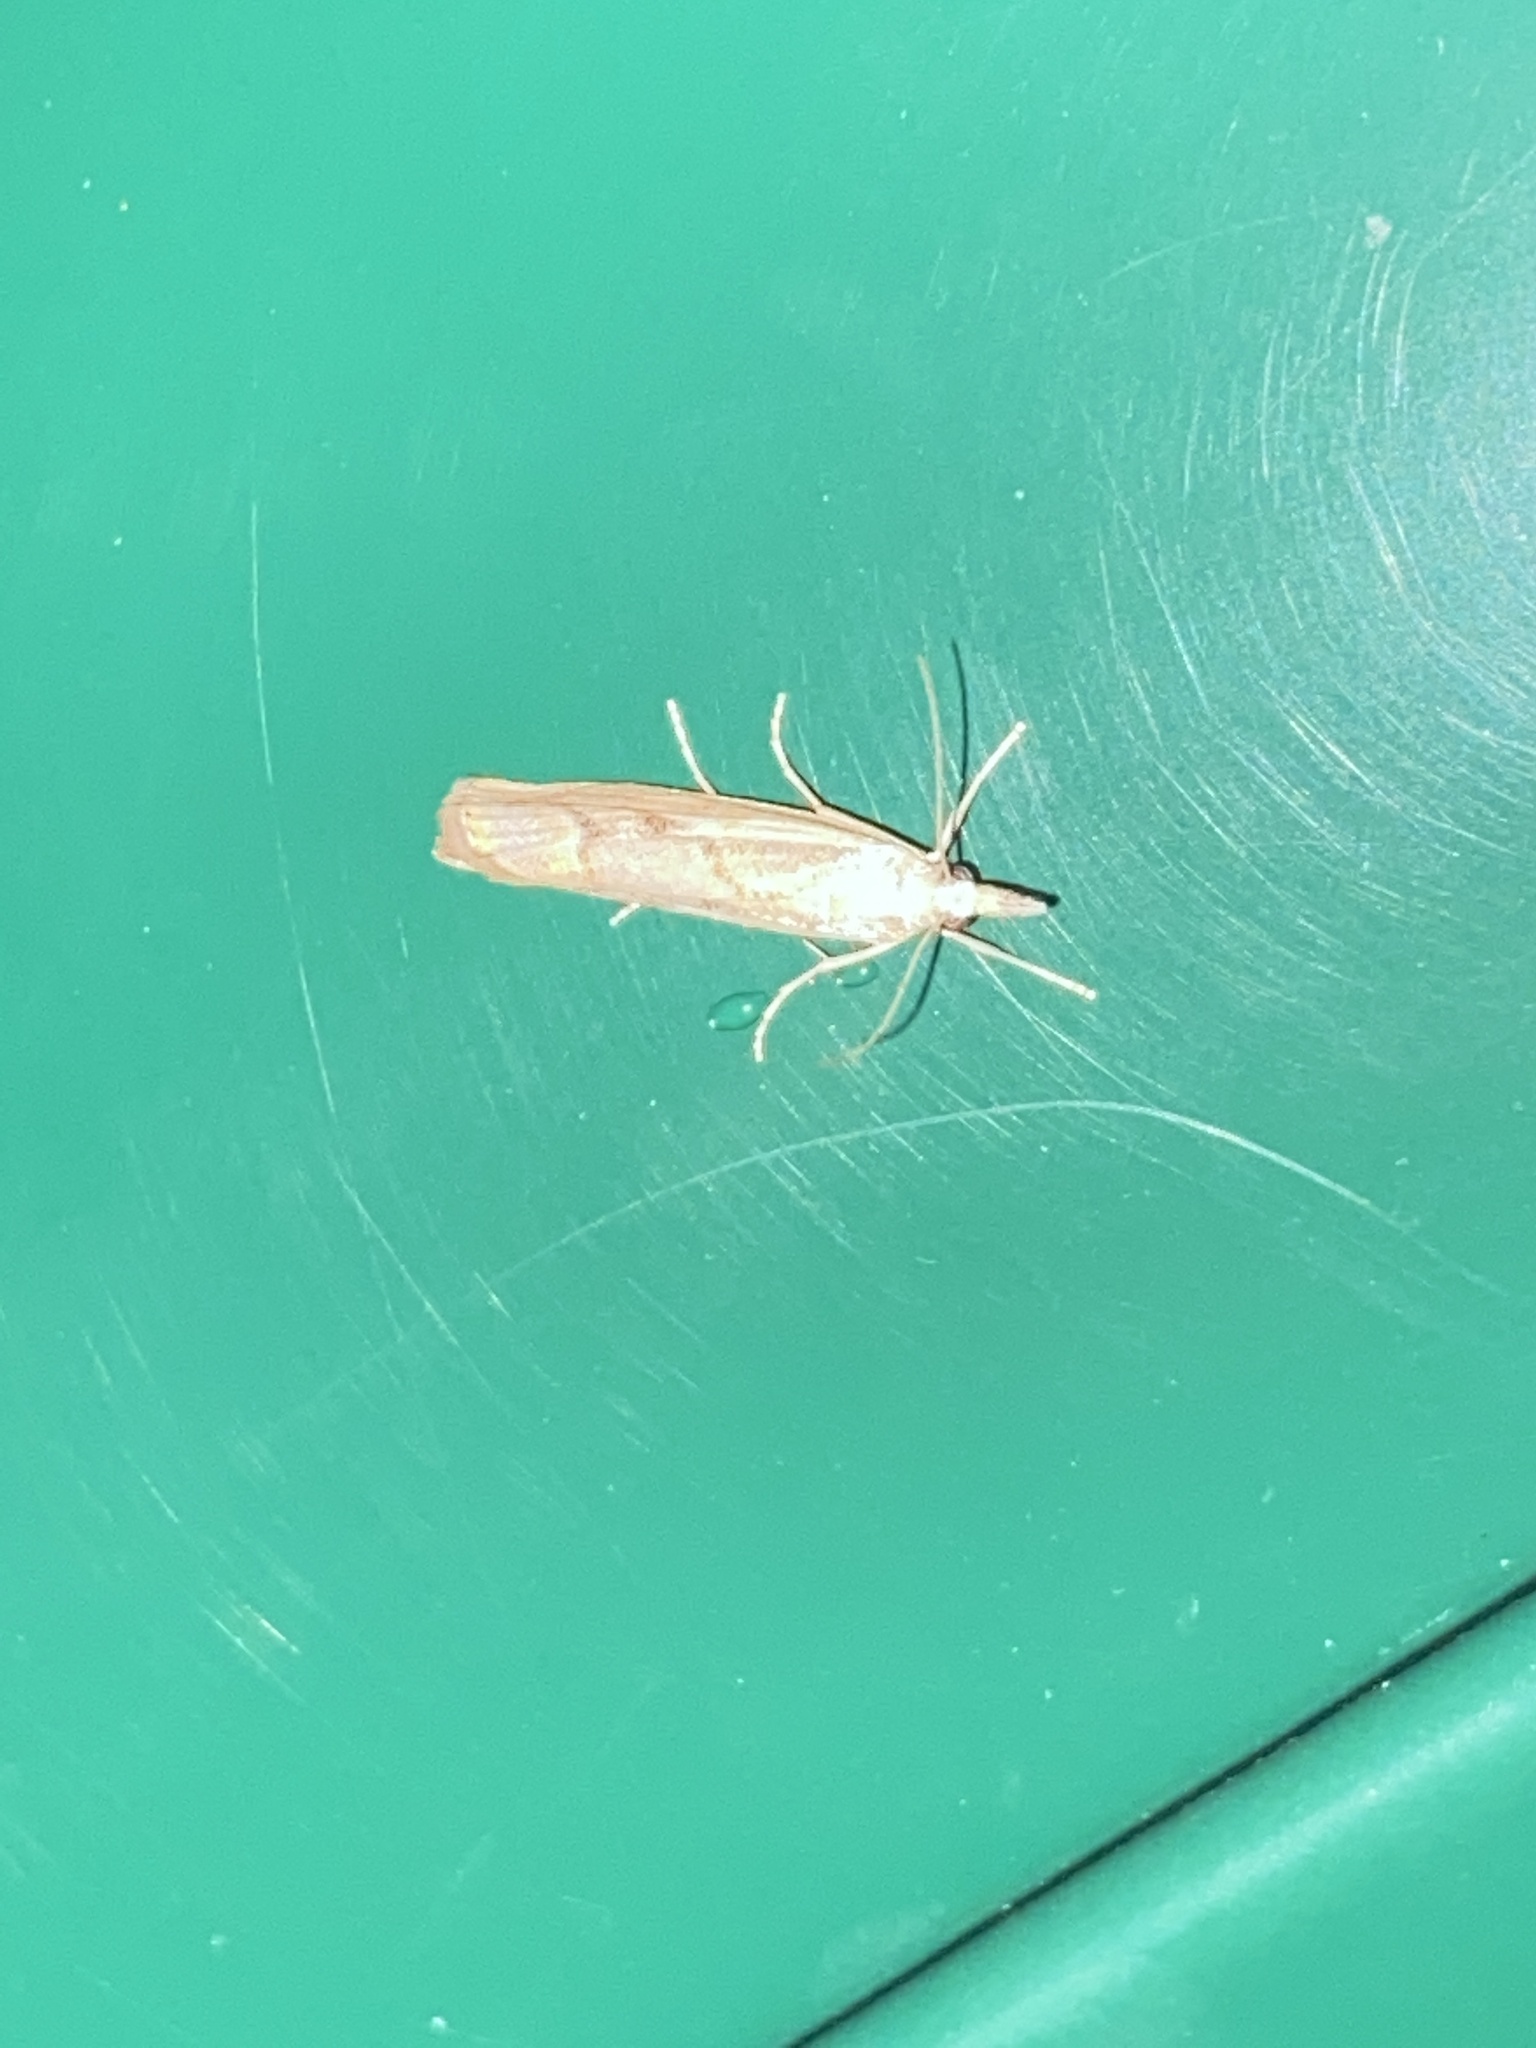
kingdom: Animalia
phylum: Arthropoda
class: Insecta
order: Lepidoptera
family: Crambidae
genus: Agriphila
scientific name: Agriphila geniculea
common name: Elbow-stripe grass-veneer
